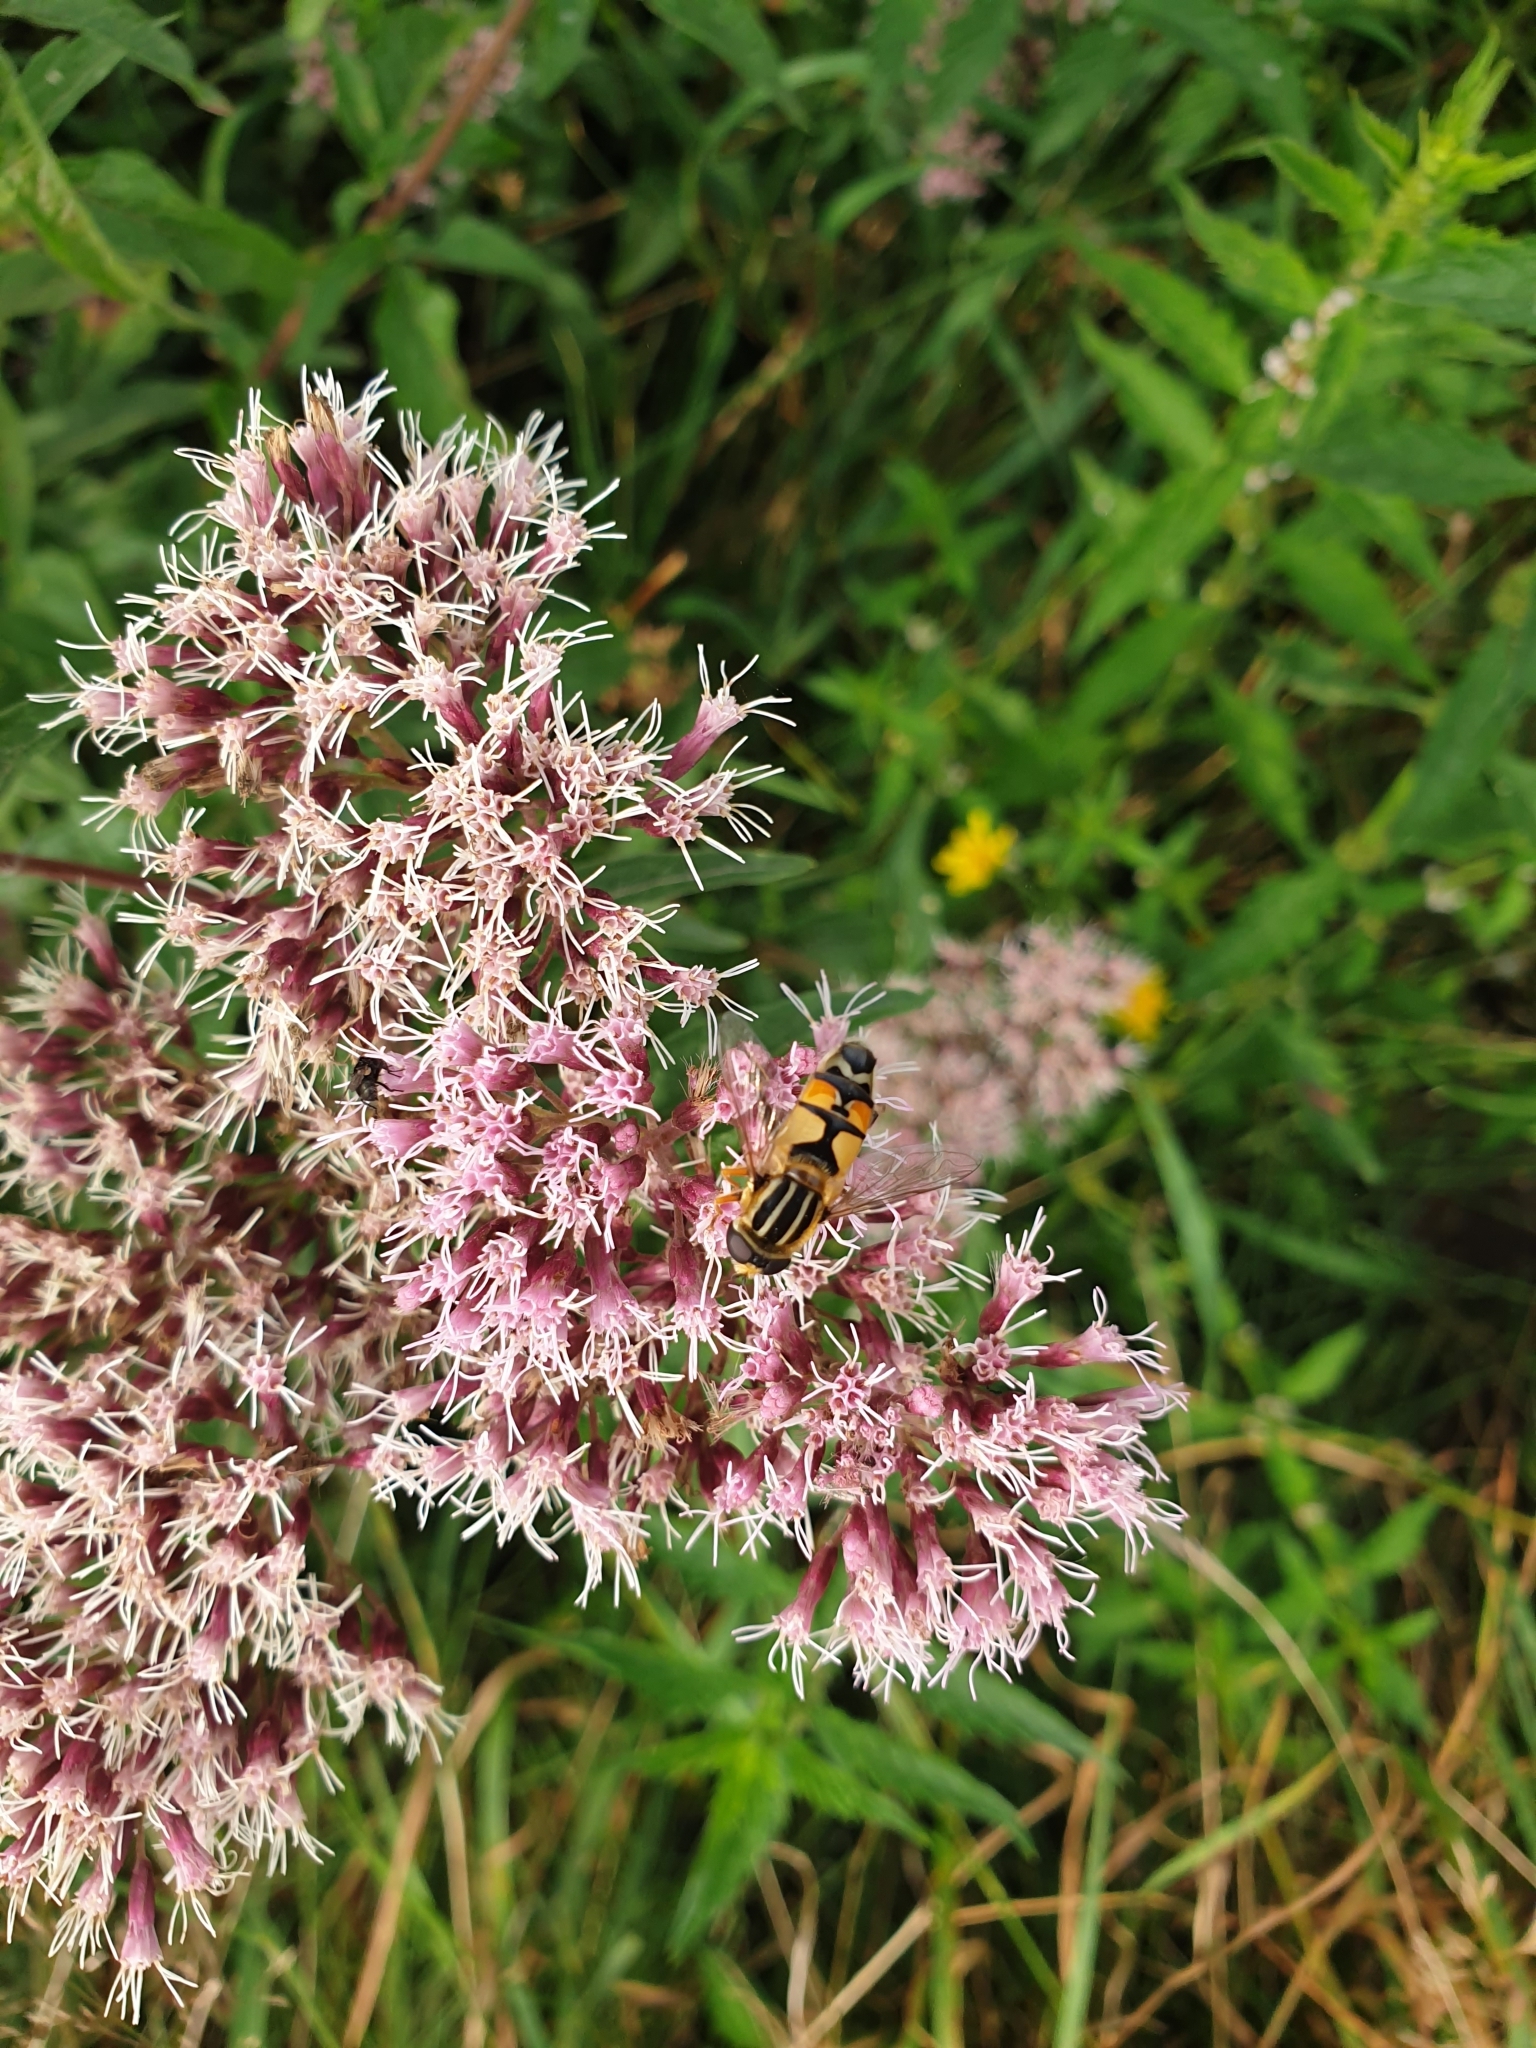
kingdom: Animalia
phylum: Arthropoda
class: Insecta
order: Diptera
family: Syrphidae
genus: Helophilus
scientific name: Helophilus trivittatus
